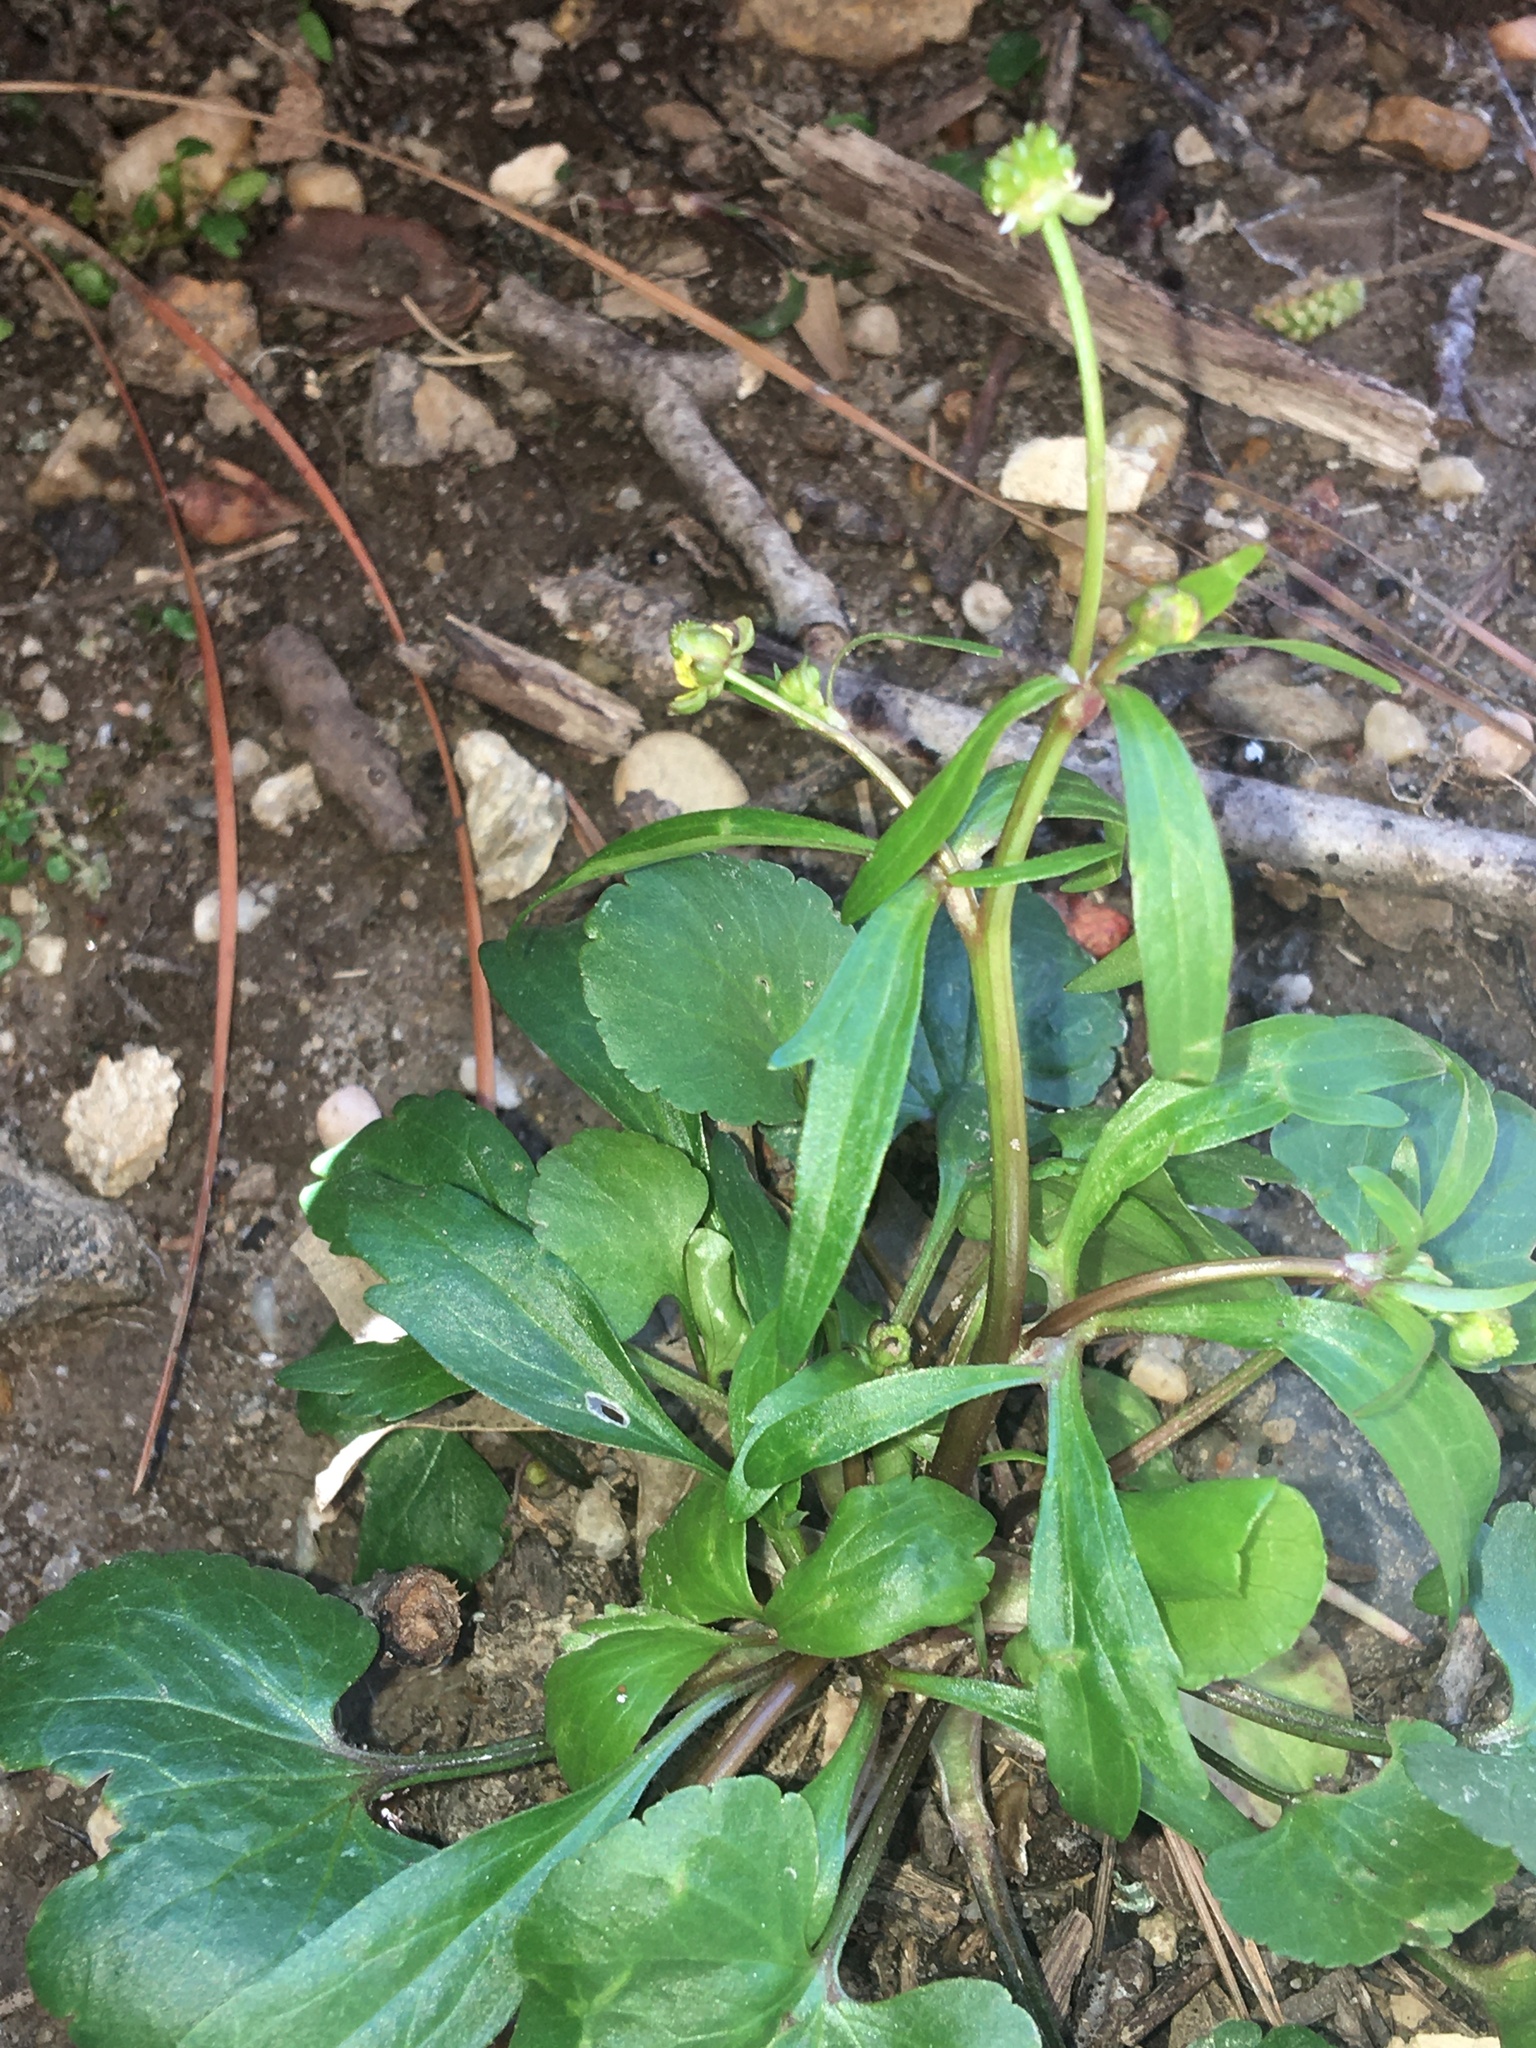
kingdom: Plantae
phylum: Tracheophyta
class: Magnoliopsida
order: Ranunculales
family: Ranunculaceae
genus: Ranunculus
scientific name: Ranunculus abortivus
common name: Early wood buttercup
